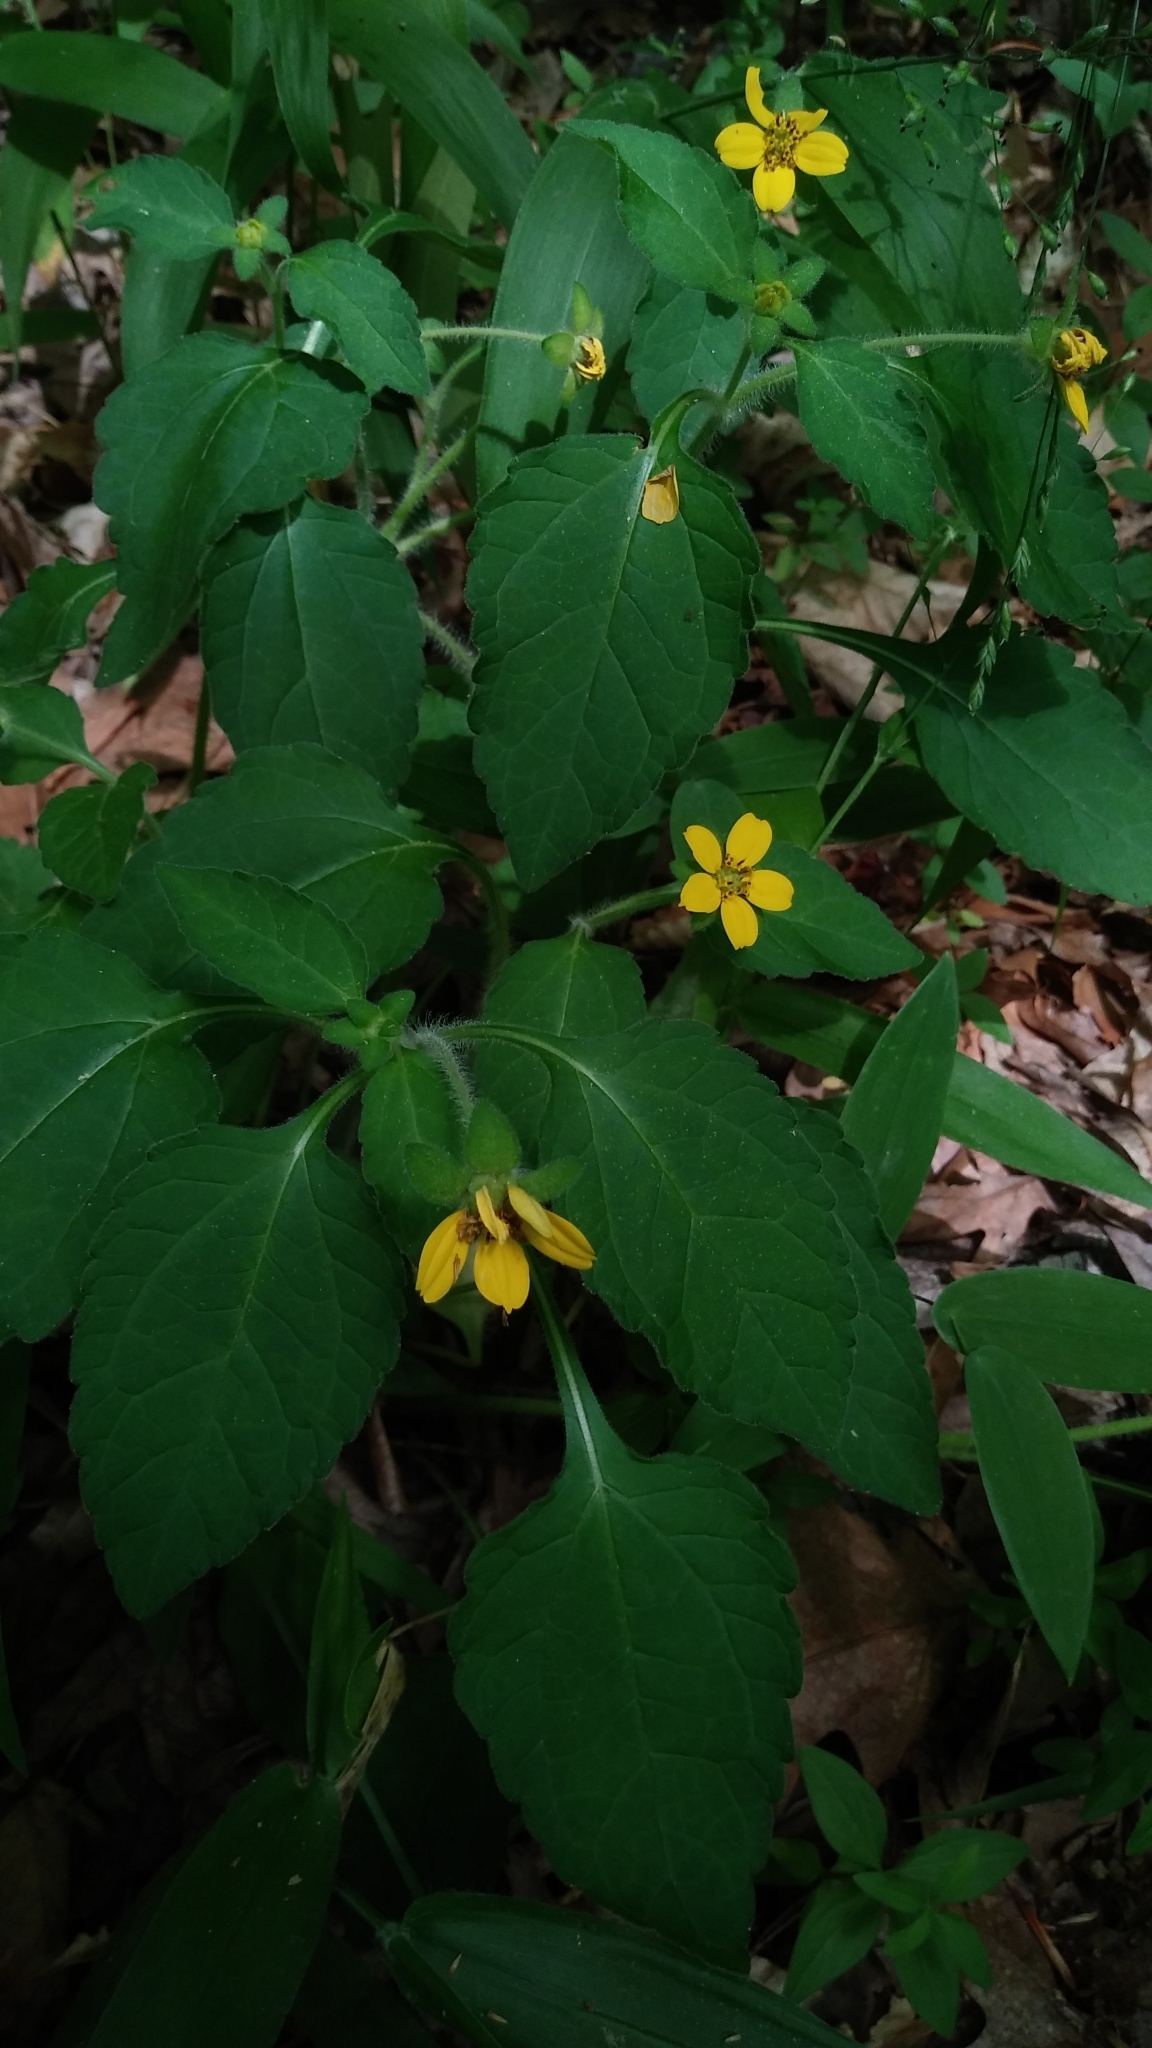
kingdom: Plantae
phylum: Tracheophyta
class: Magnoliopsida
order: Asterales
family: Asteraceae
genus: Chrysogonum
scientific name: Chrysogonum virginianum
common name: Golden-knee
